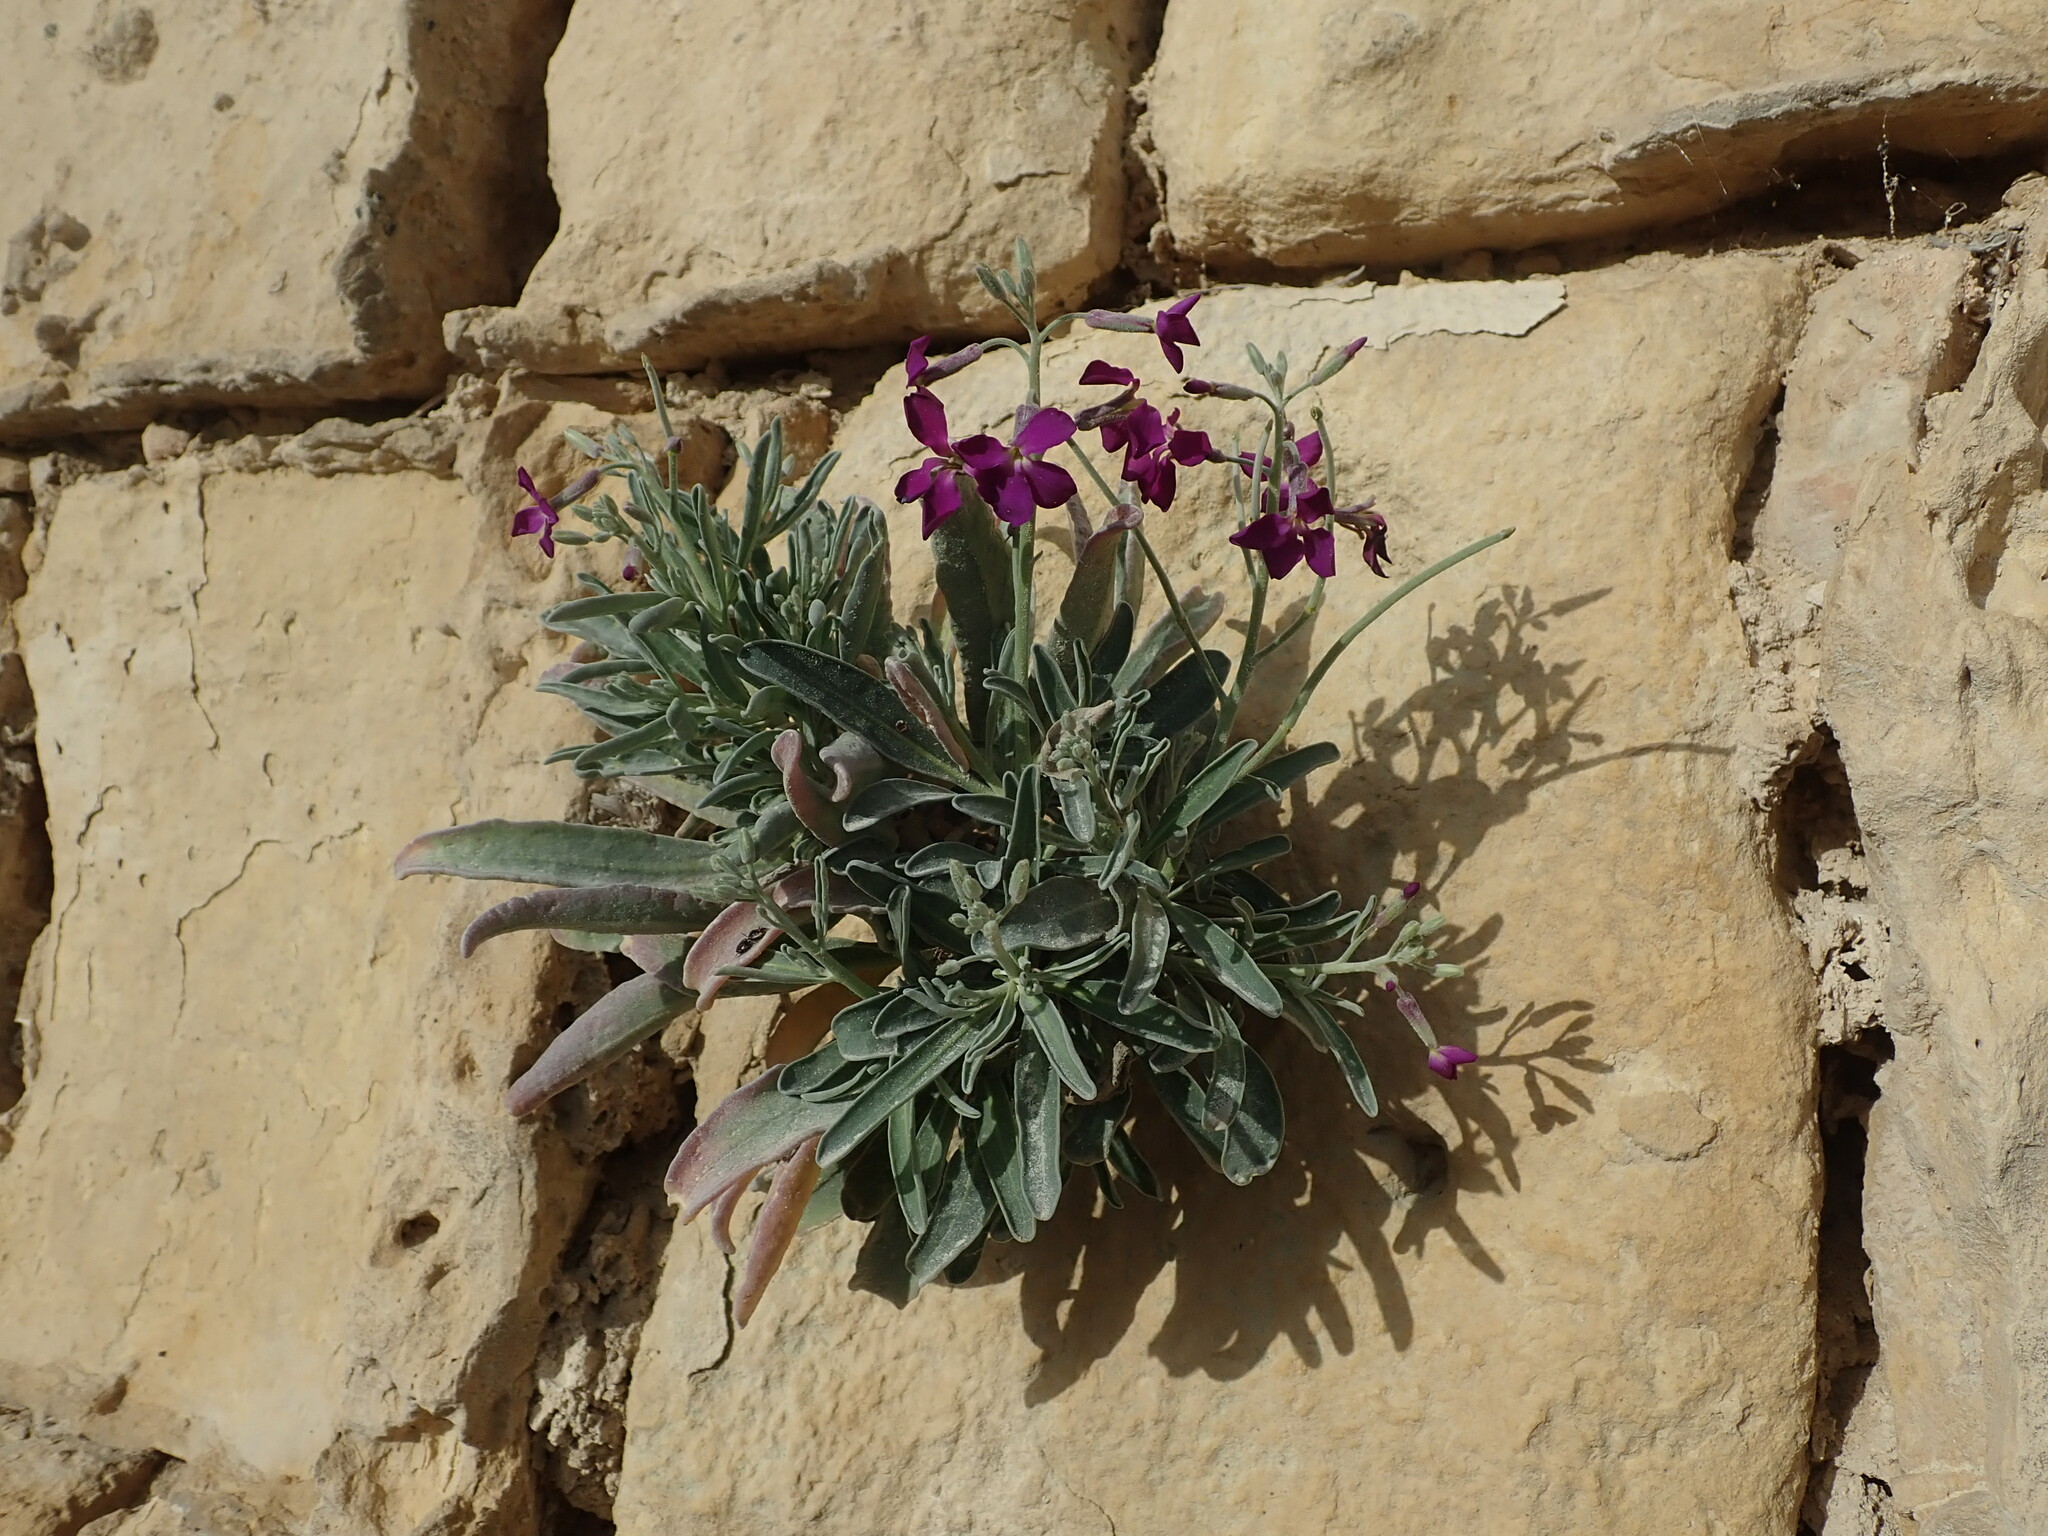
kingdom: Plantae
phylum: Tracheophyta
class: Magnoliopsida
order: Brassicales
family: Brassicaceae
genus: Matthiola
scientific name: Matthiola incana
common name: Hoary stock
